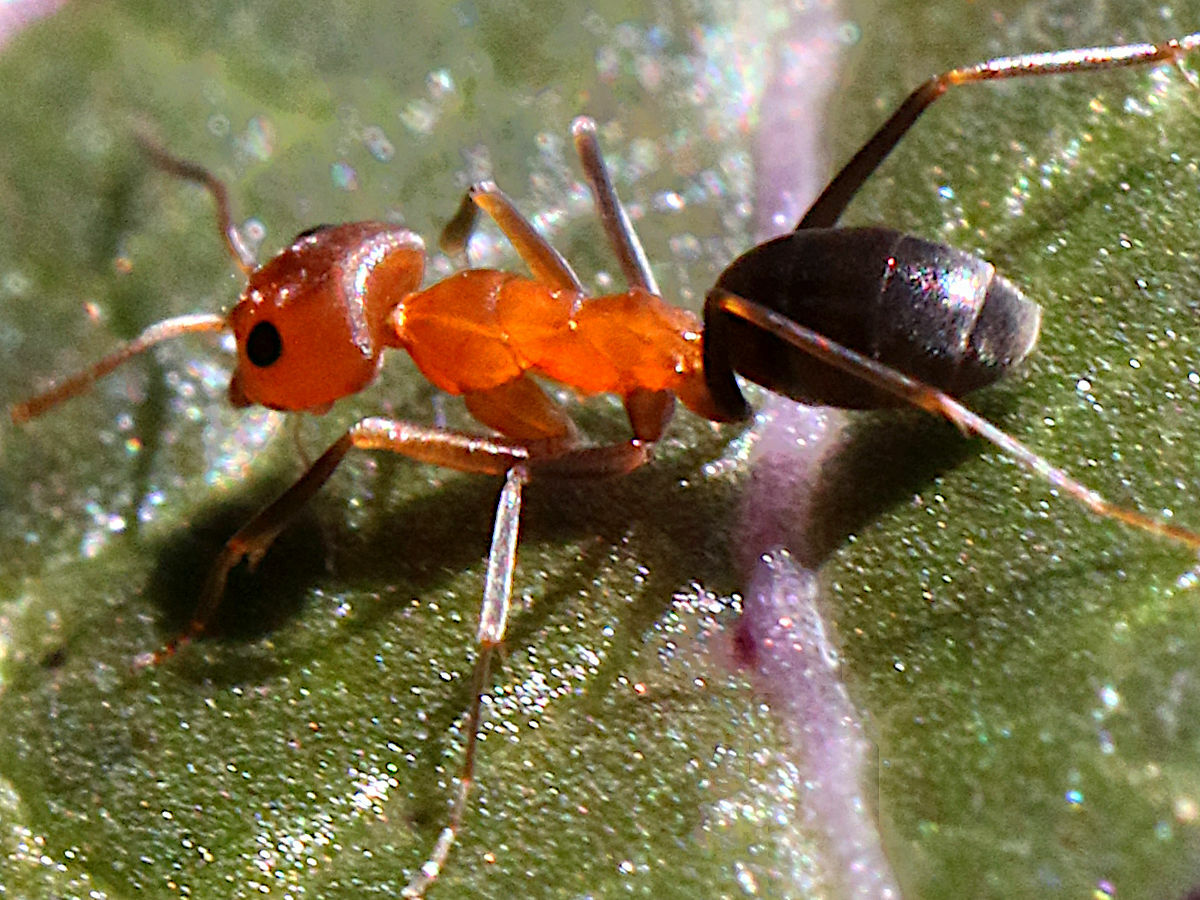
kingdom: Animalia
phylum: Arthropoda
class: Insecta
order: Hymenoptera
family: Formicidae
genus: Dorymyrmex
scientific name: Dorymyrmex bicolor
